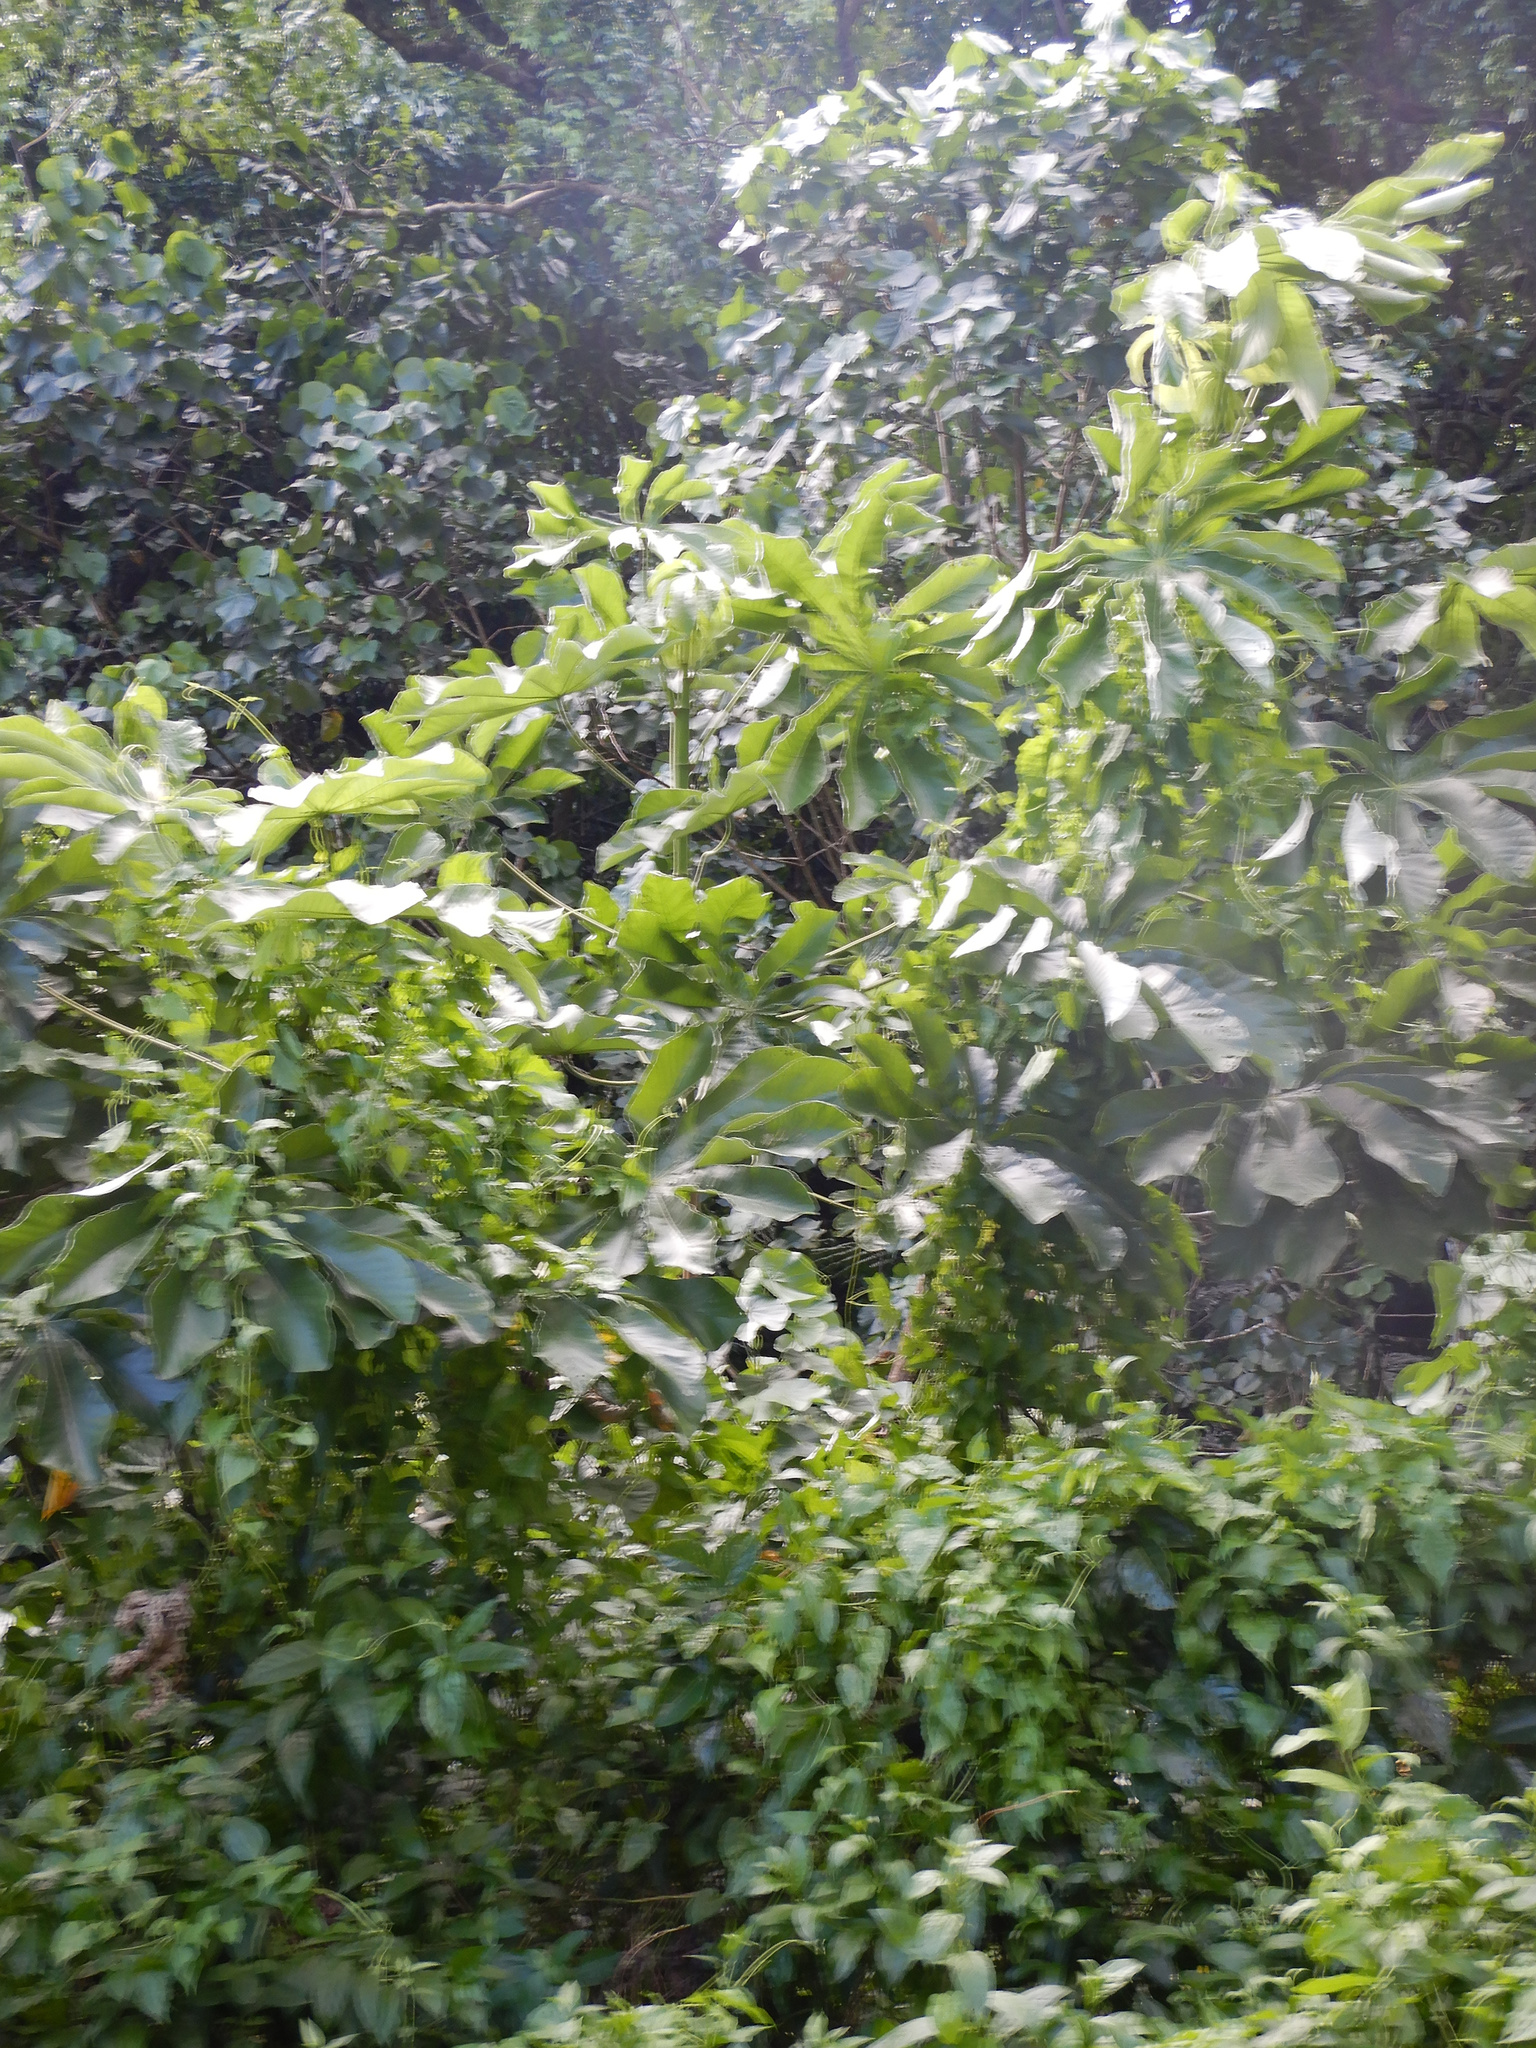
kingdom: Plantae
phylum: Tracheophyta
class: Magnoliopsida
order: Rosales
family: Urticaceae
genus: Cecropia
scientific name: Cecropia pachystachya
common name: Ambay pumpwood
